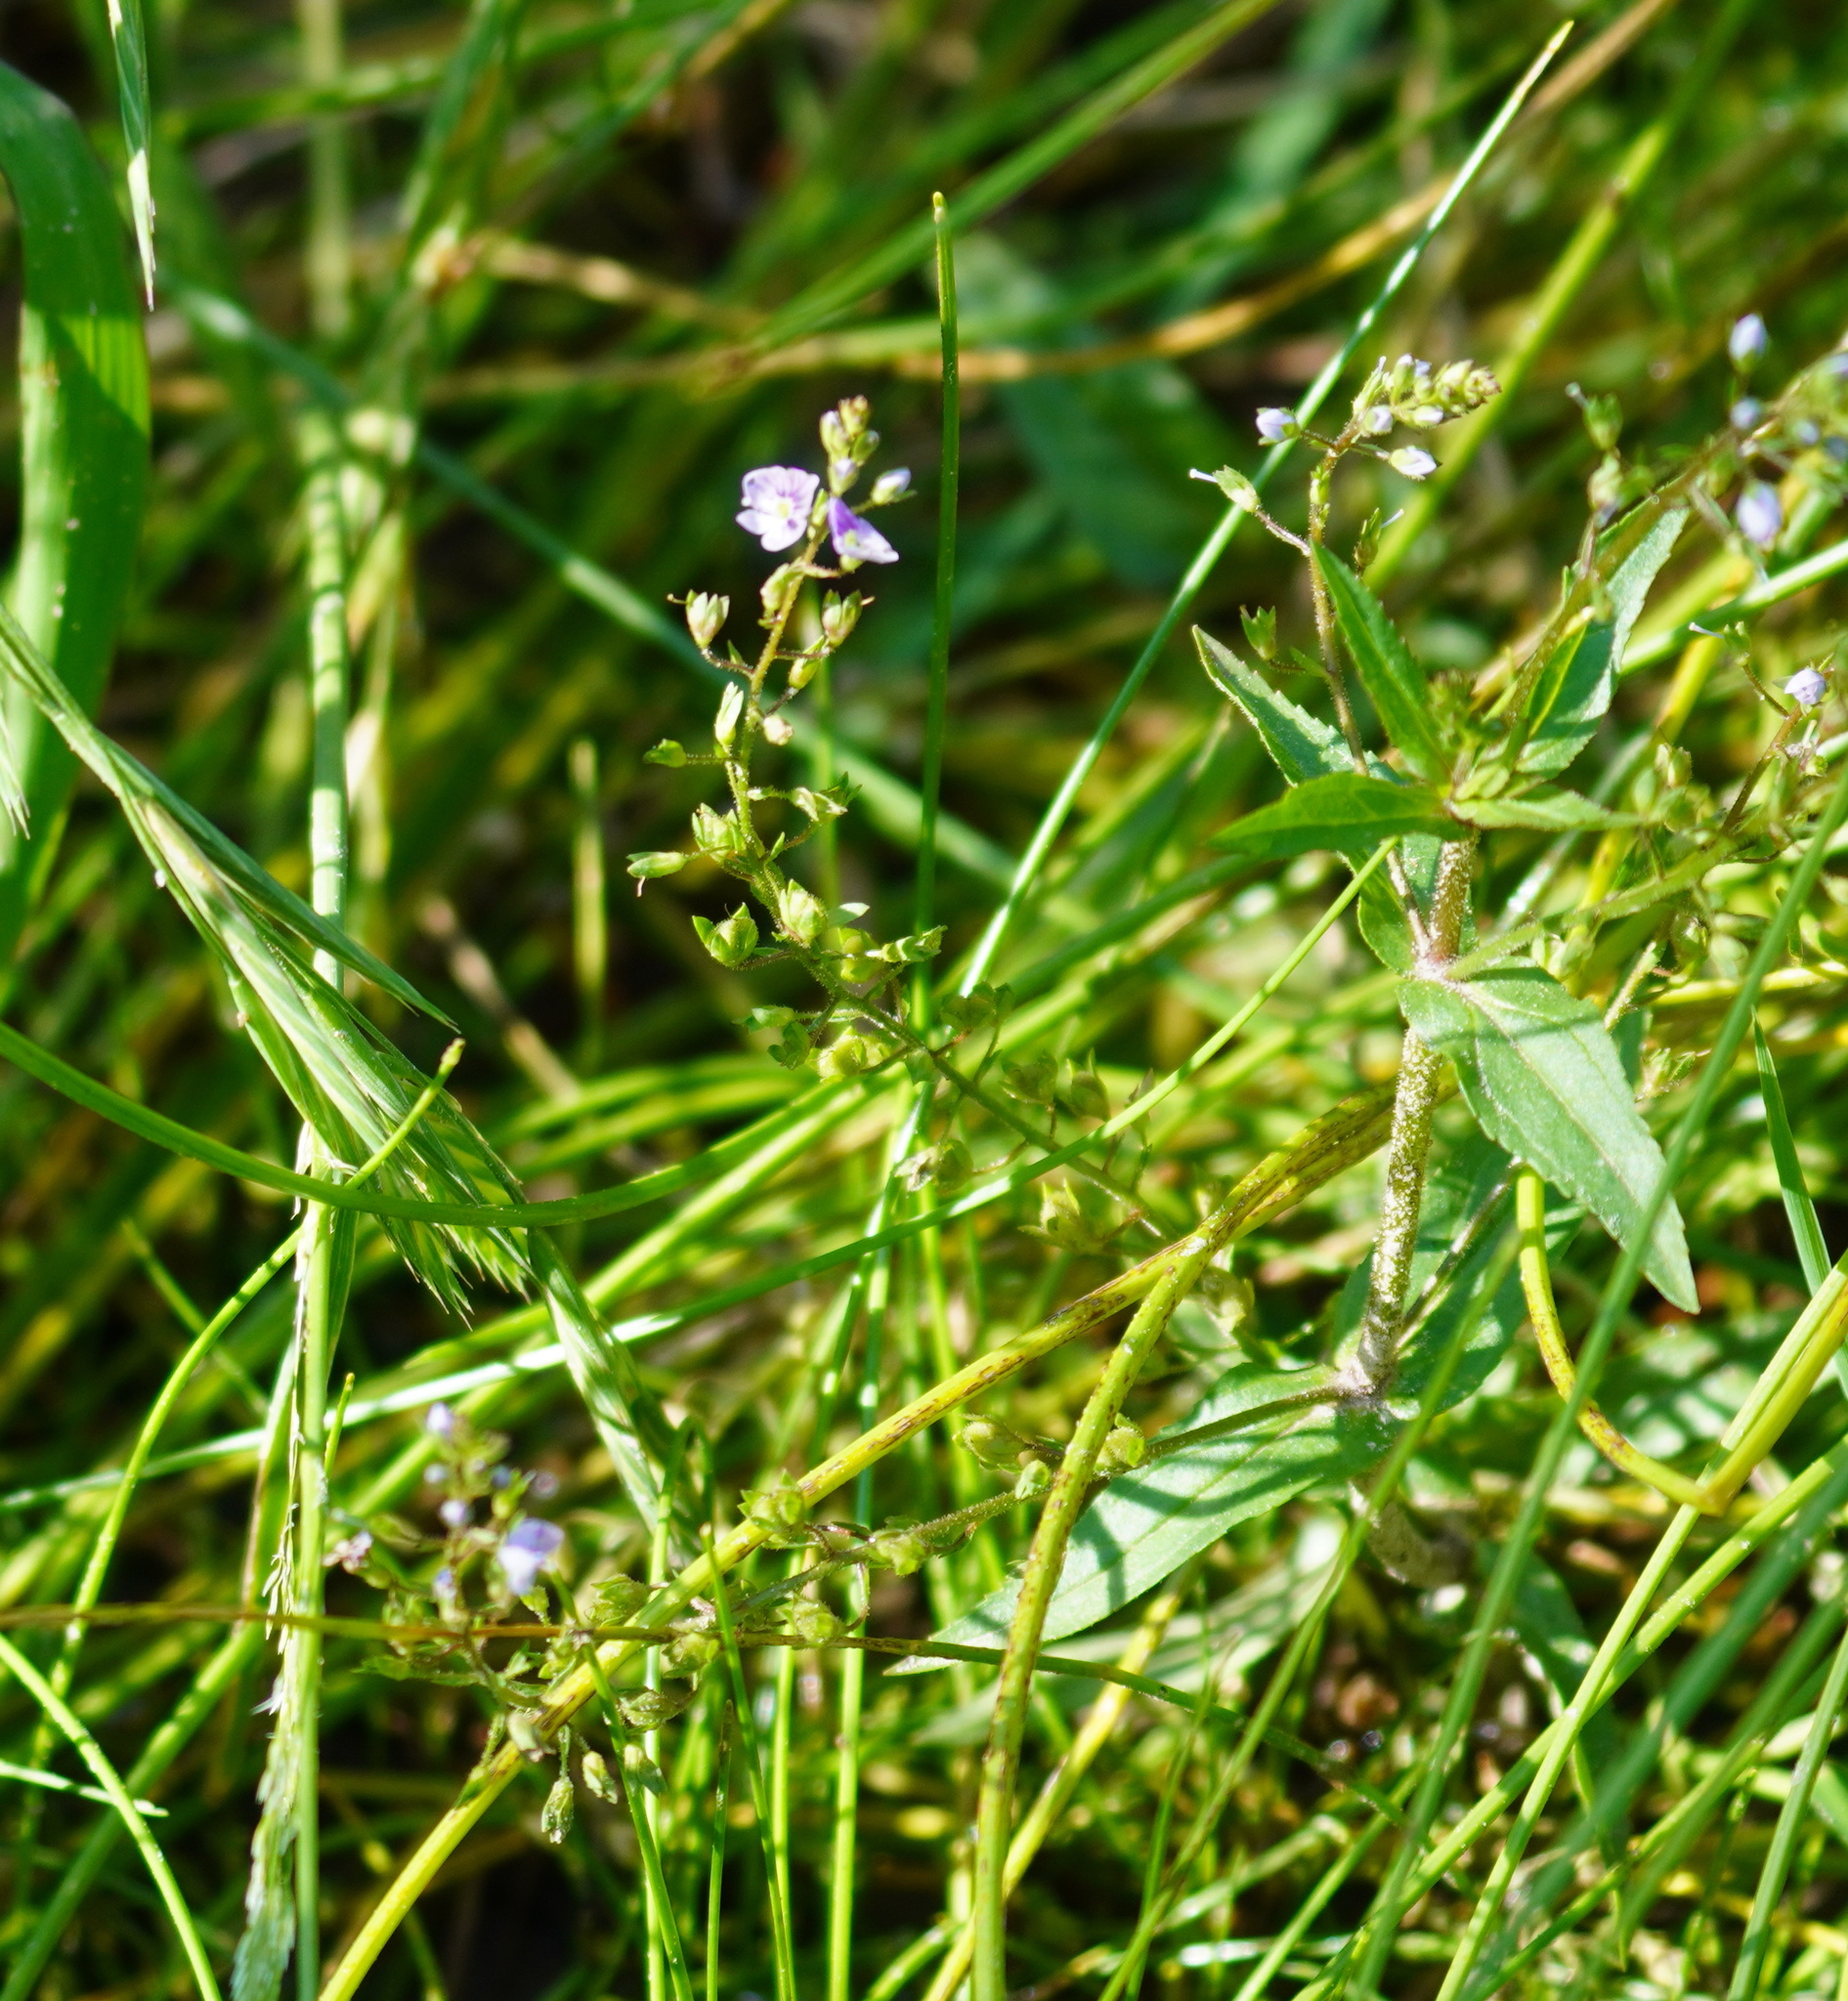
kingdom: Plantae
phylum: Tracheophyta
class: Magnoliopsida
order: Lamiales
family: Plantaginaceae
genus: Veronica
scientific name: Veronica anagallis-aquatica
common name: Water speedwell
